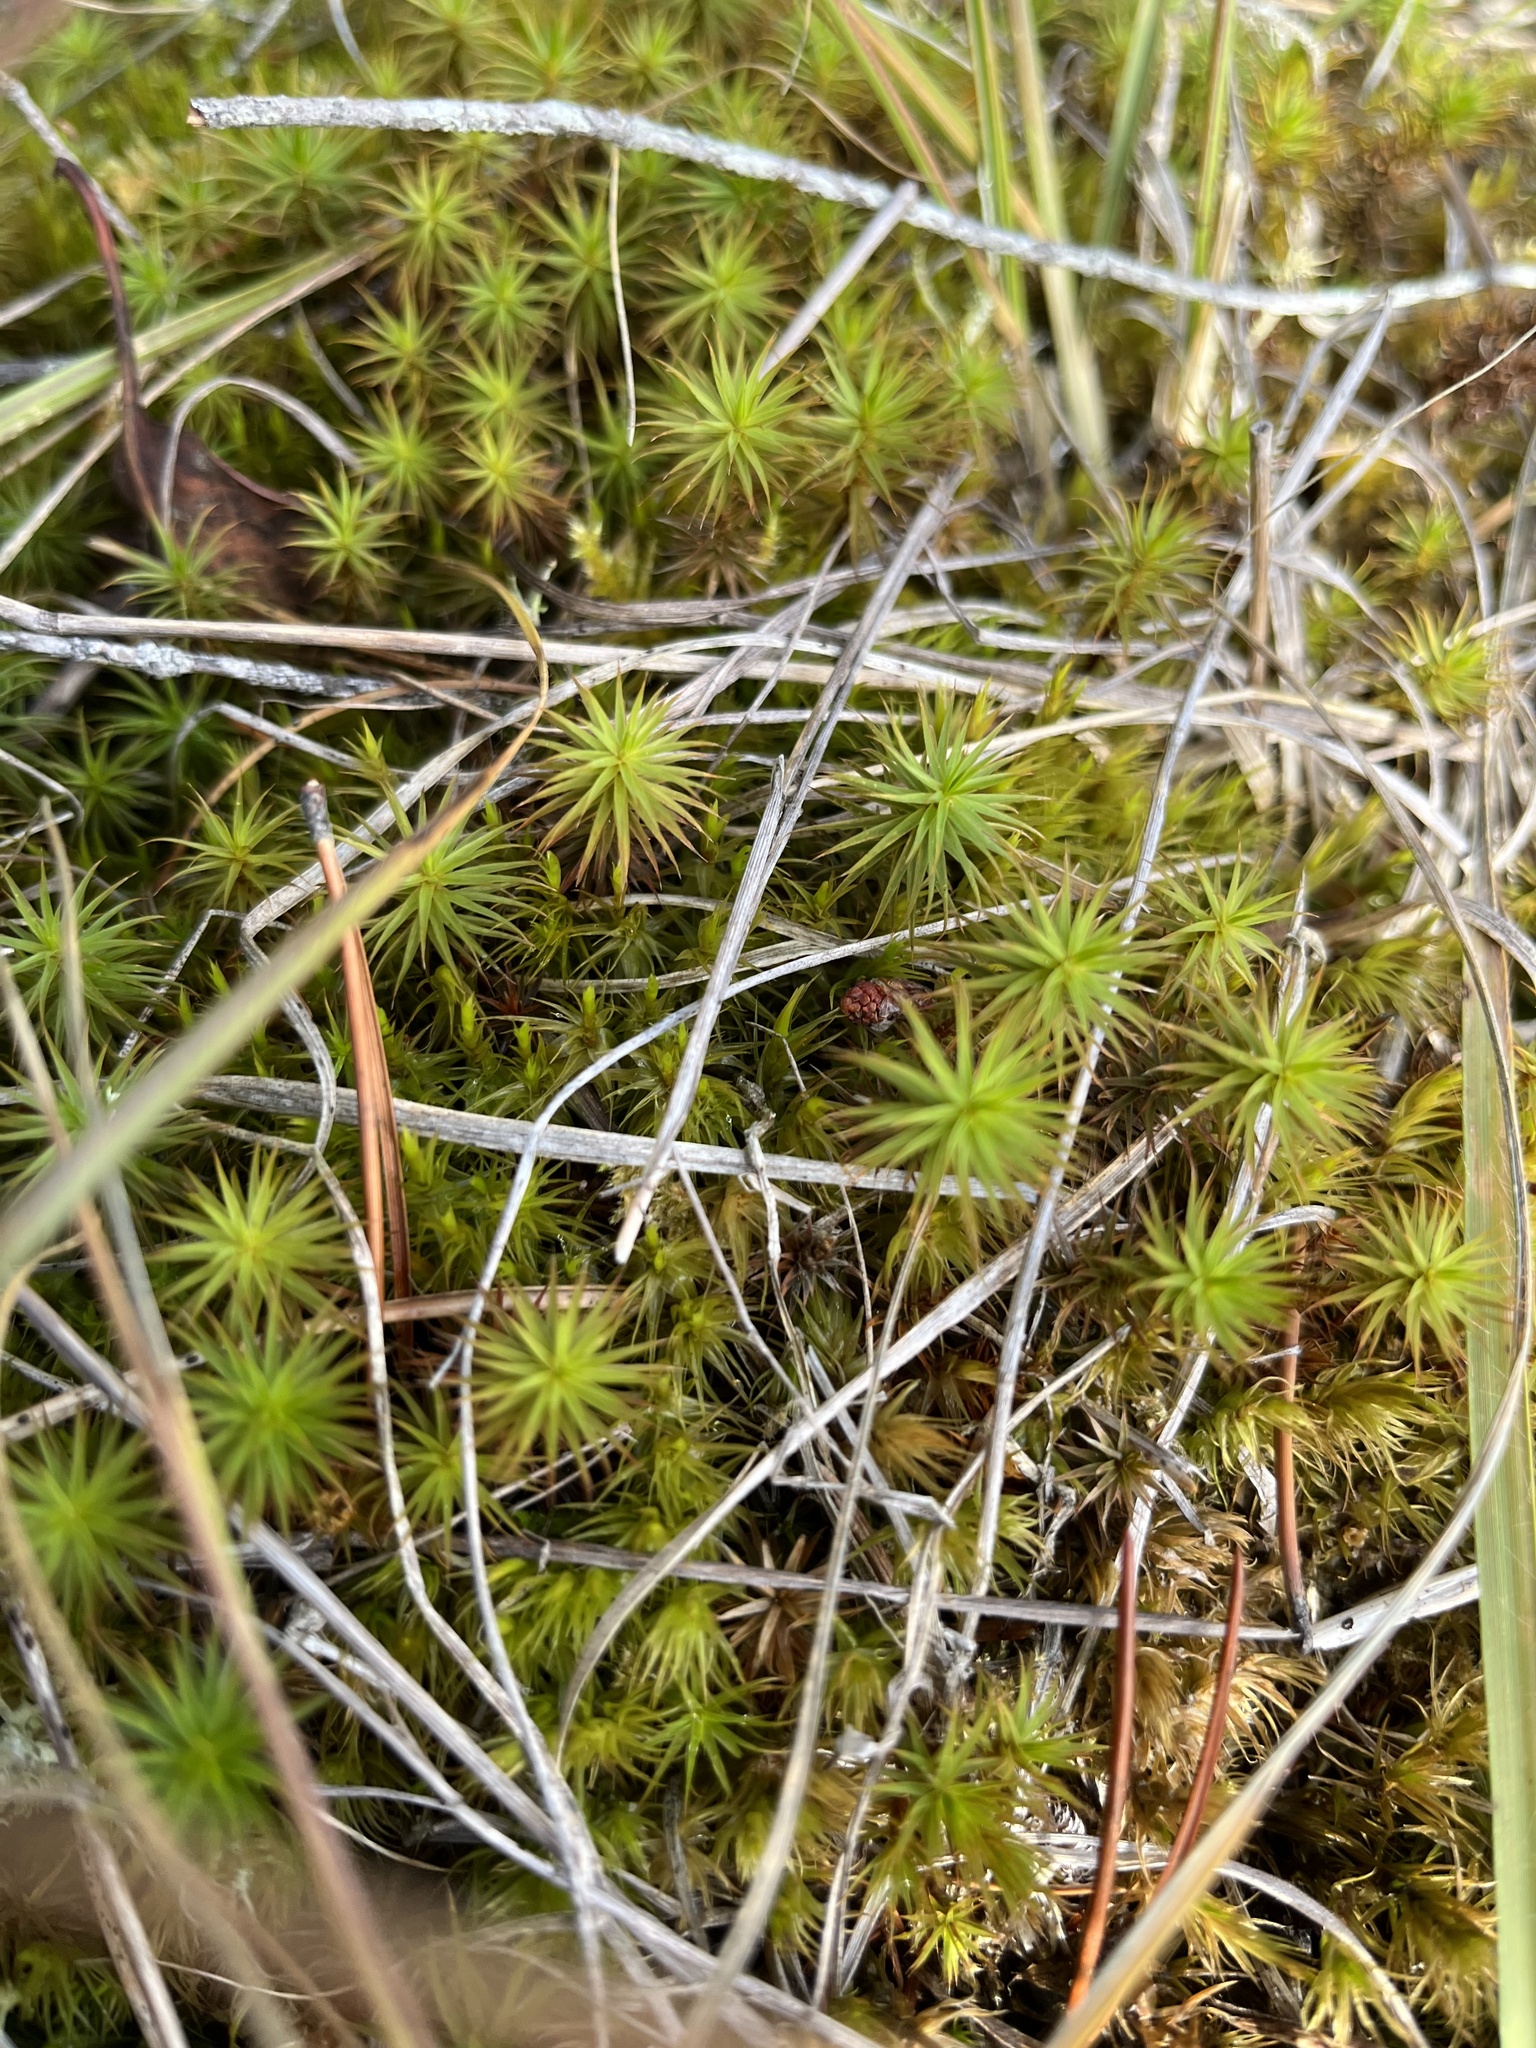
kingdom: Plantae
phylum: Bryophyta
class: Polytrichopsida
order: Polytrichales
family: Polytrichaceae
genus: Polytrichum
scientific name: Polytrichum commune
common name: Common haircap
